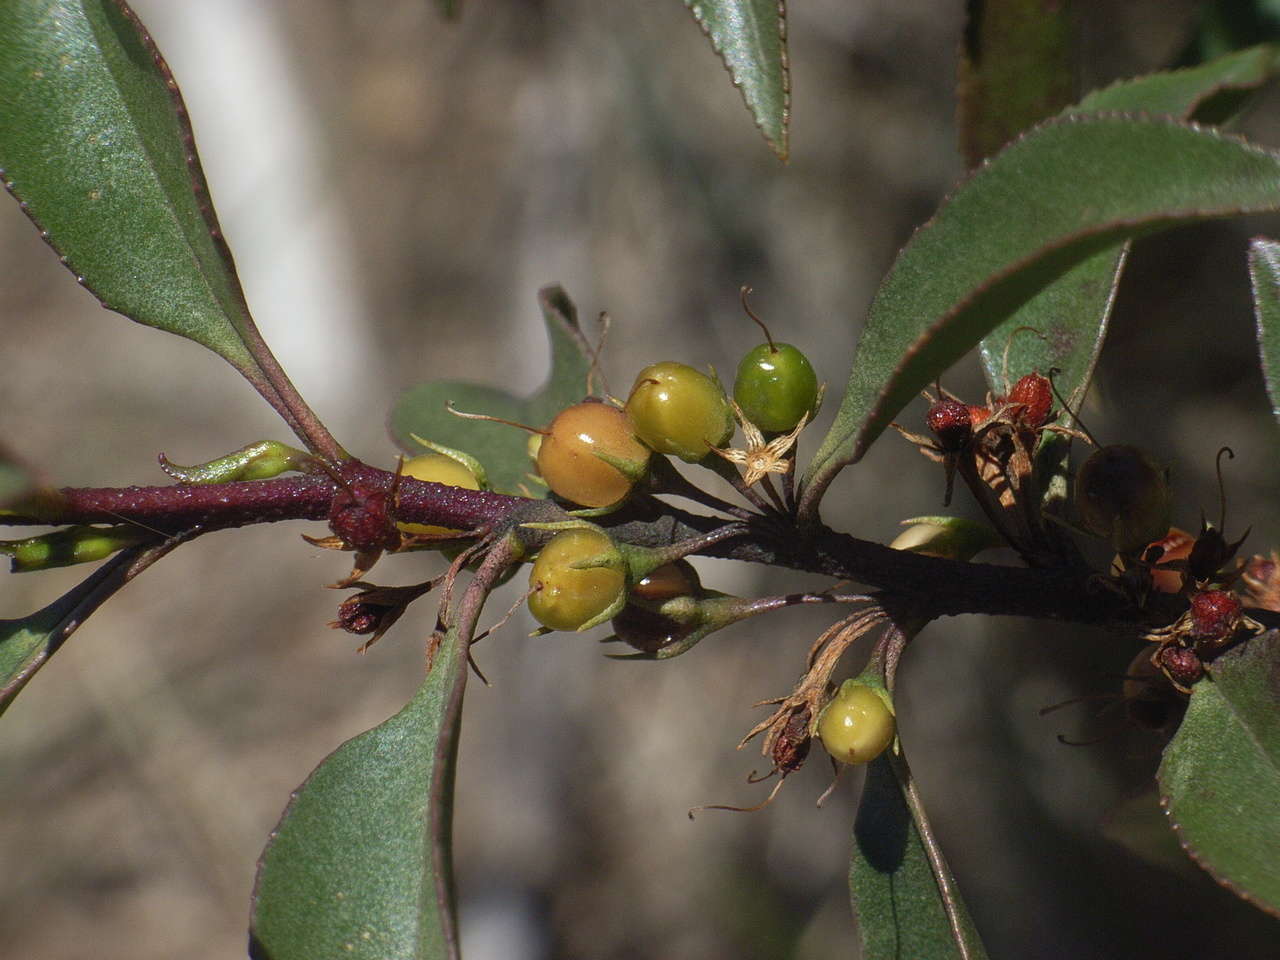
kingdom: Plantae
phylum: Tracheophyta
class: Magnoliopsida
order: Lamiales
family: Scrophulariaceae
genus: Myoporum
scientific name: Myoporum petiolatum
